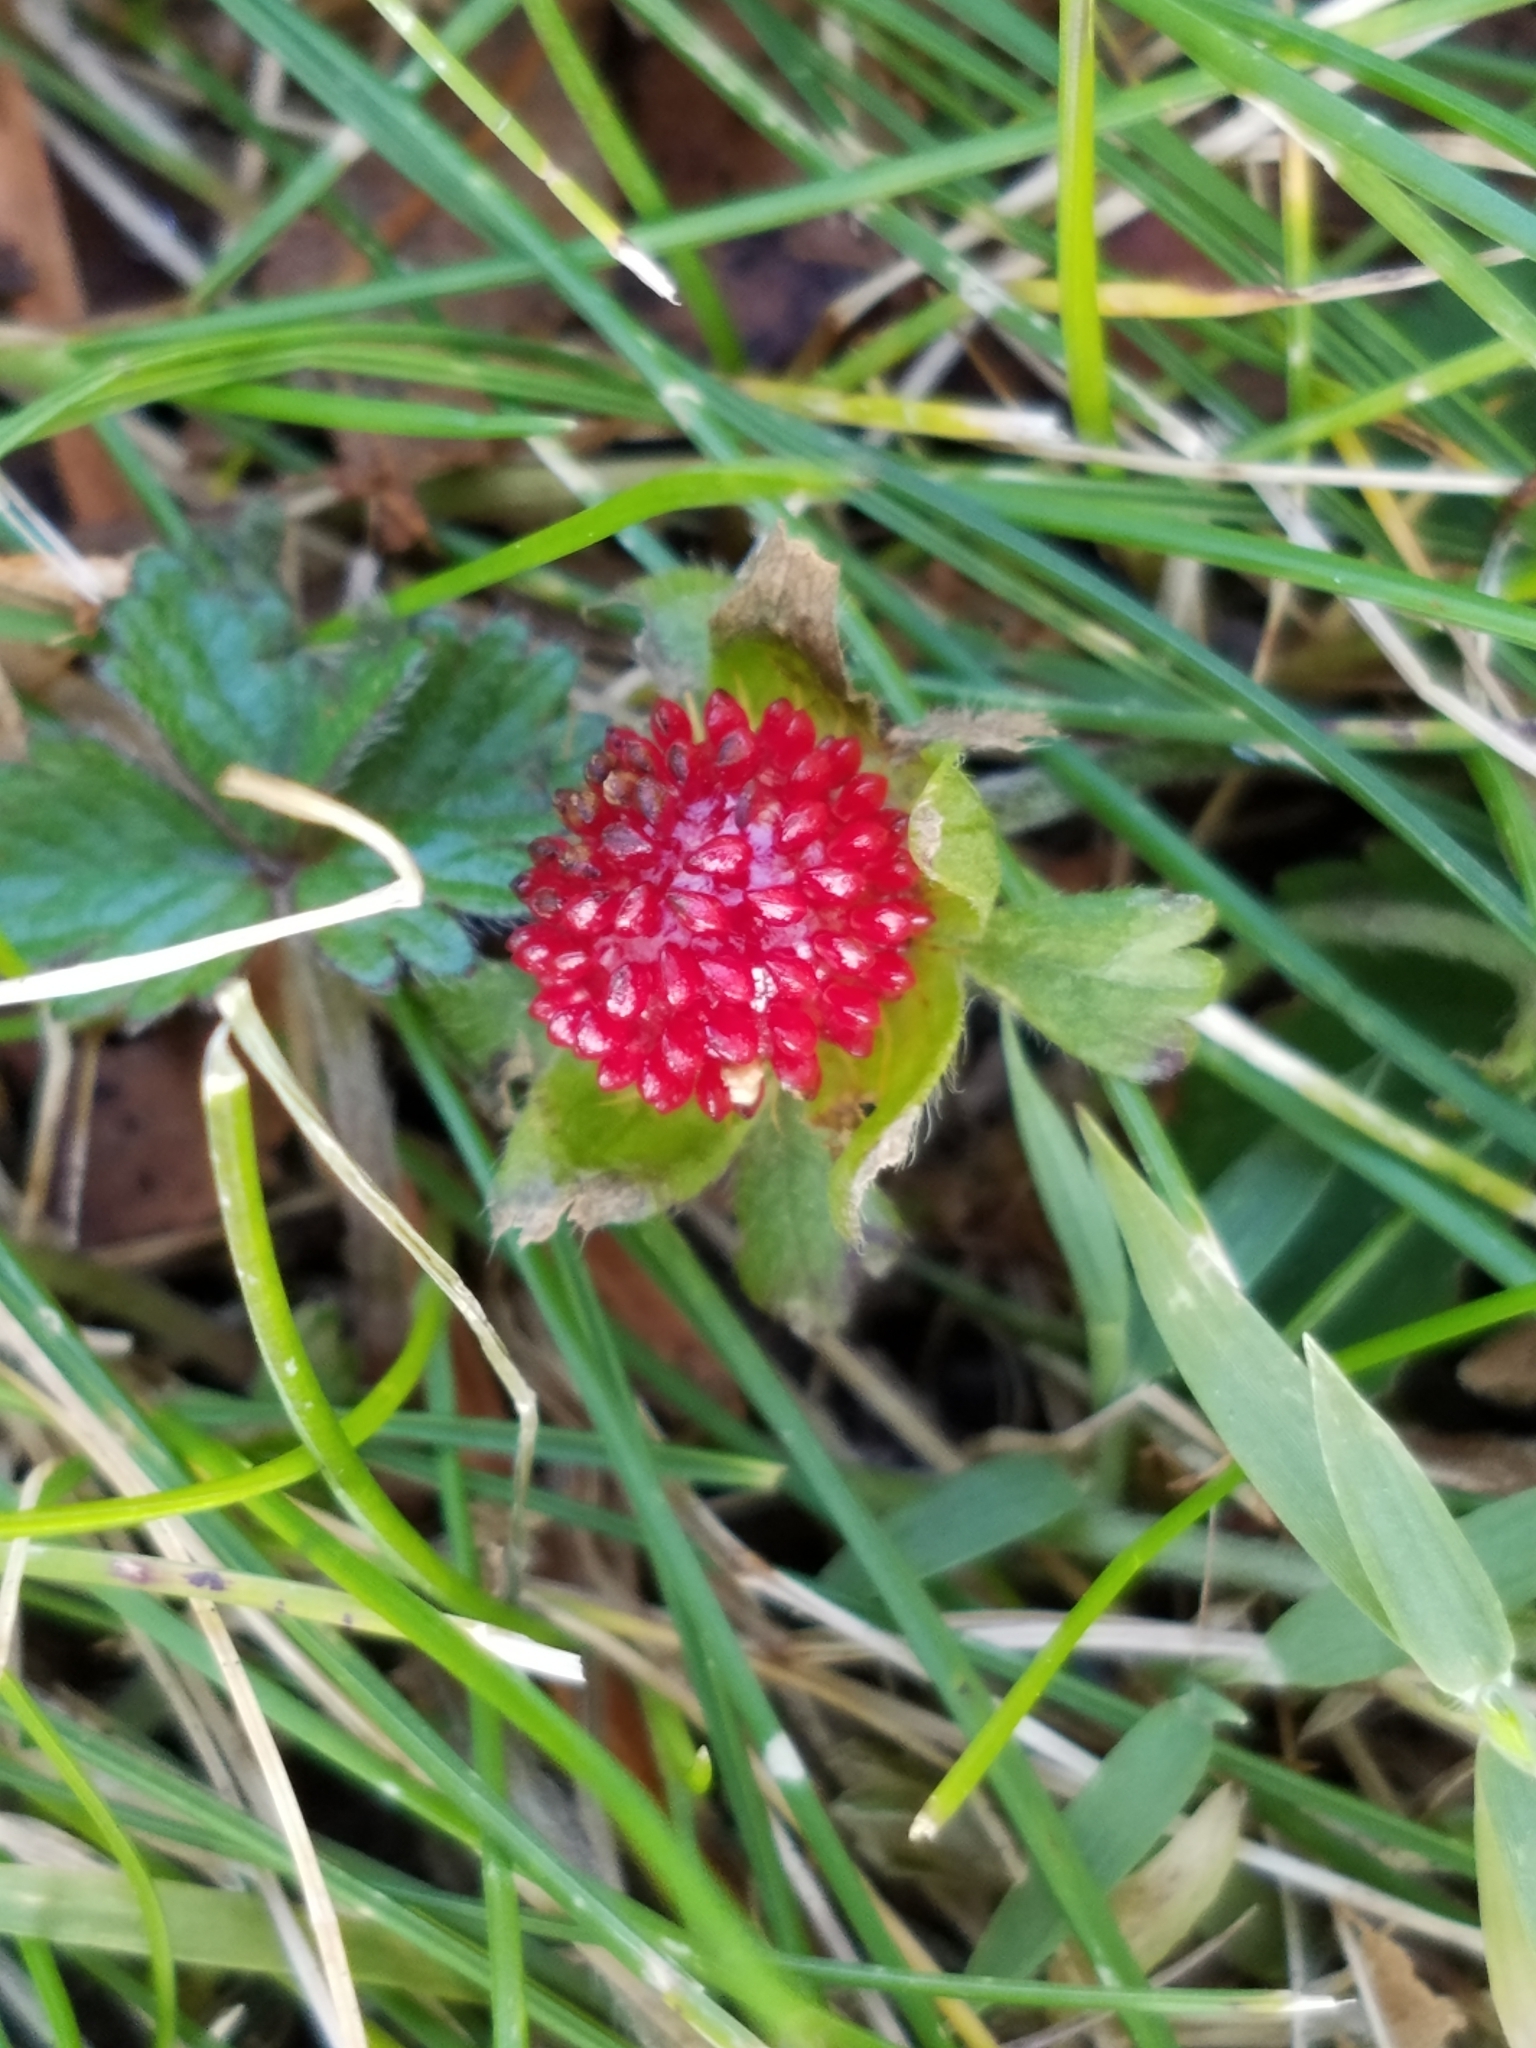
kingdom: Plantae
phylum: Tracheophyta
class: Magnoliopsida
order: Rosales
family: Rosaceae
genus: Potentilla
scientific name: Potentilla indica
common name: Yellow-flowered strawberry
